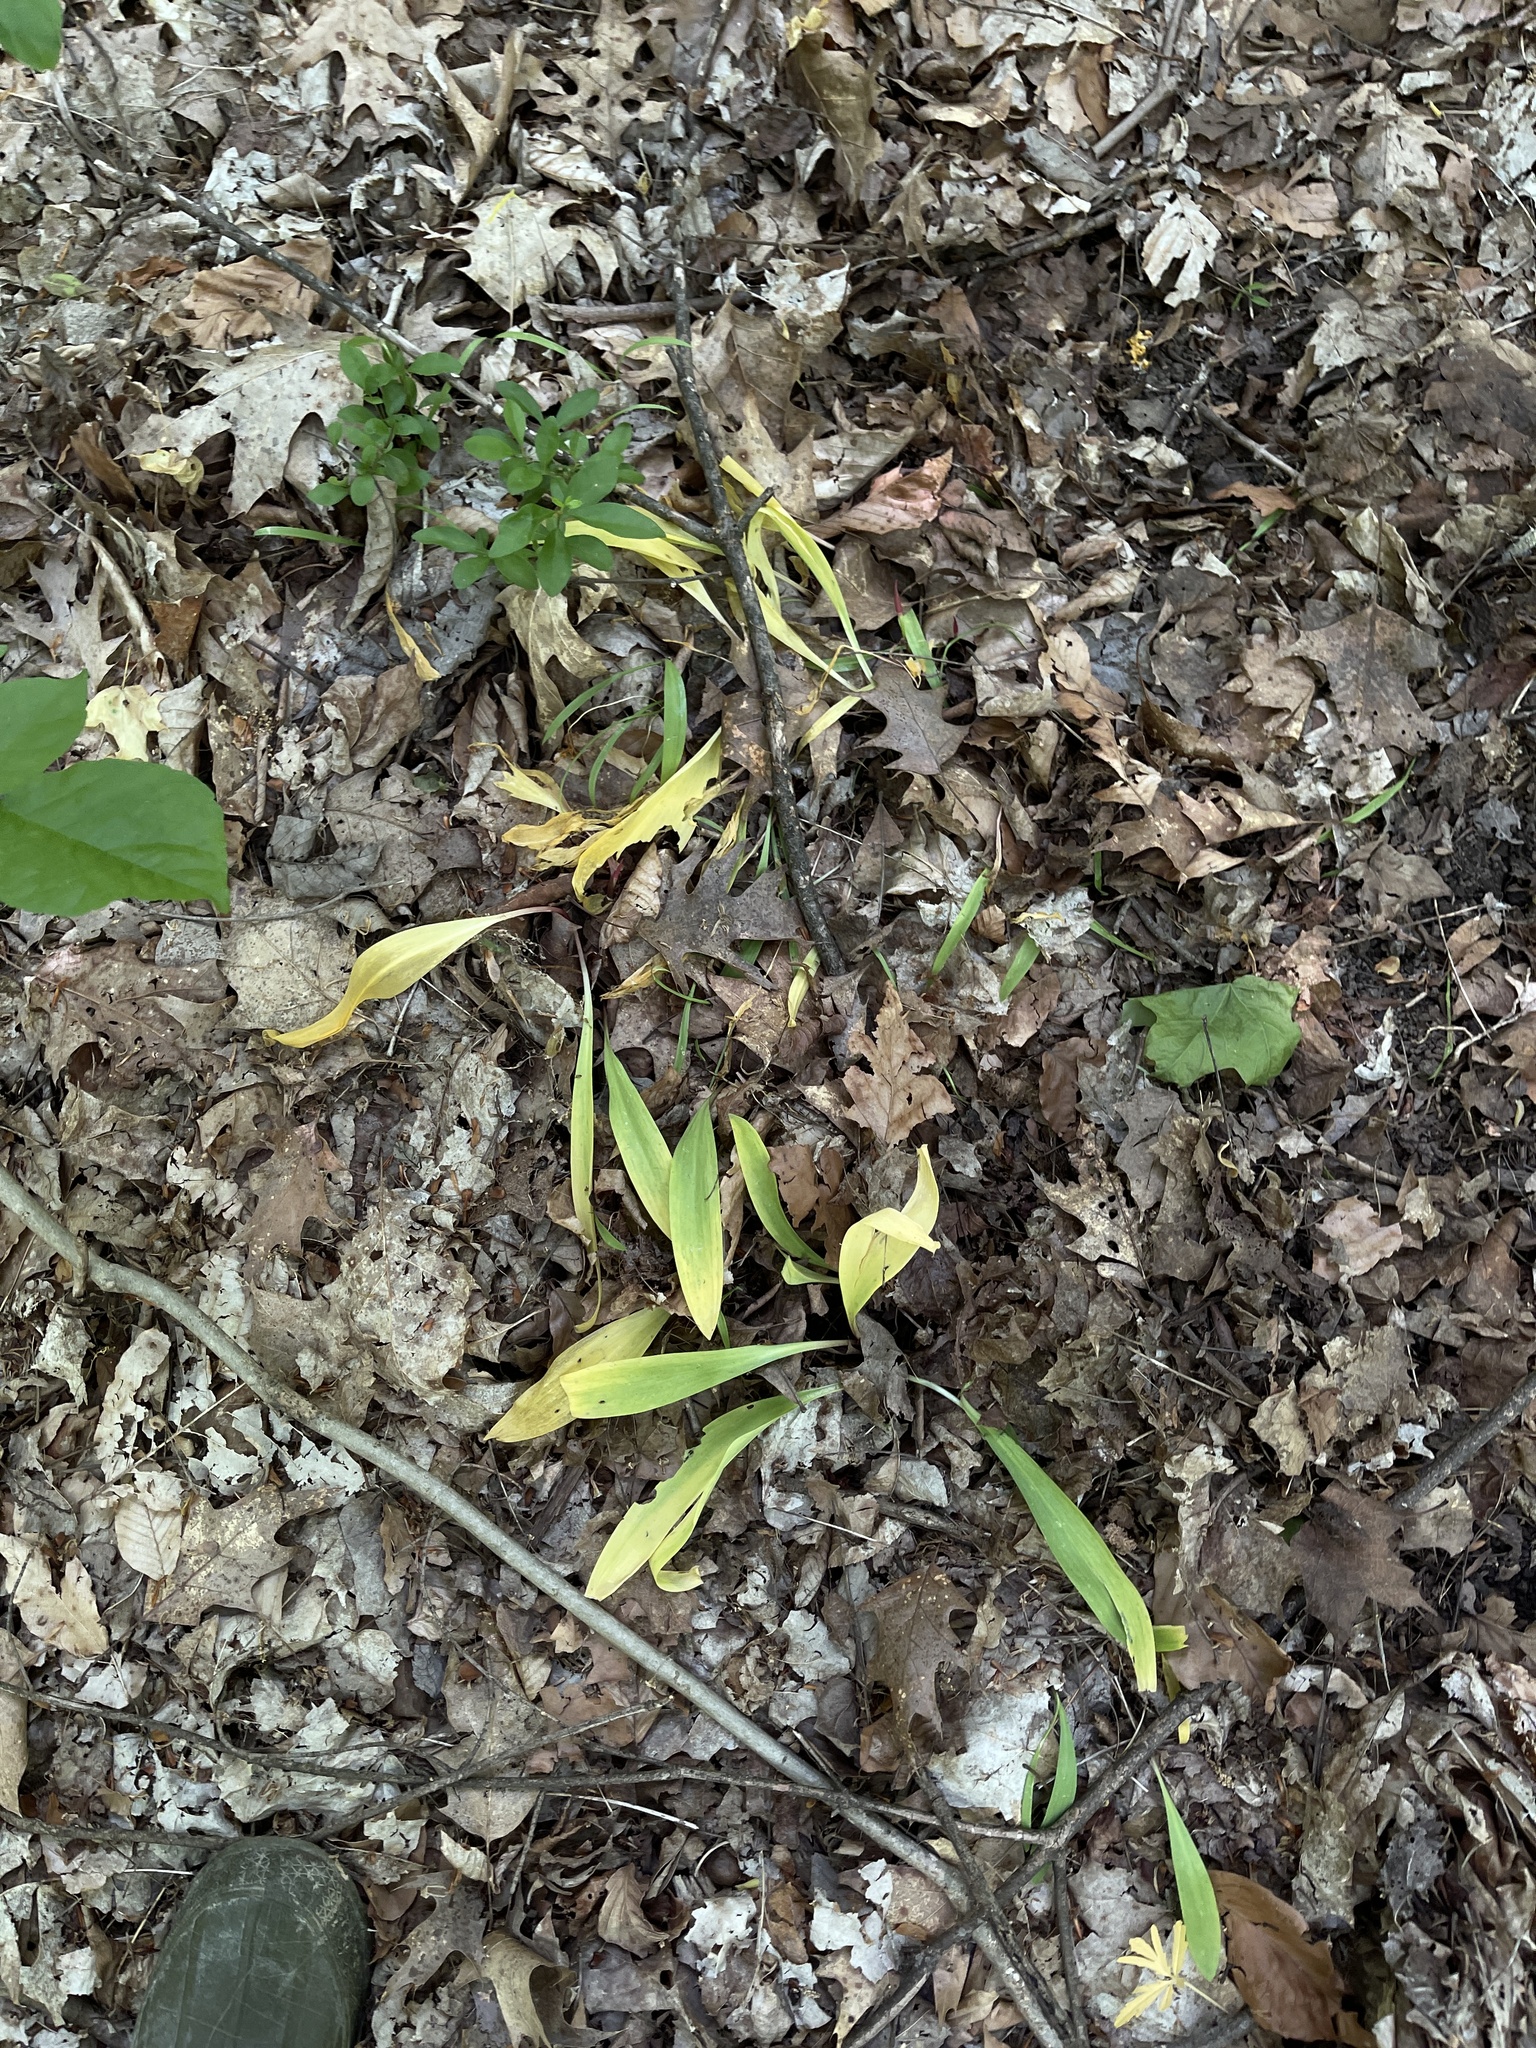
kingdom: Plantae
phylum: Tracheophyta
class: Liliopsida
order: Asparagales
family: Amaryllidaceae
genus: Allium
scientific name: Allium tricoccum
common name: Ramp
